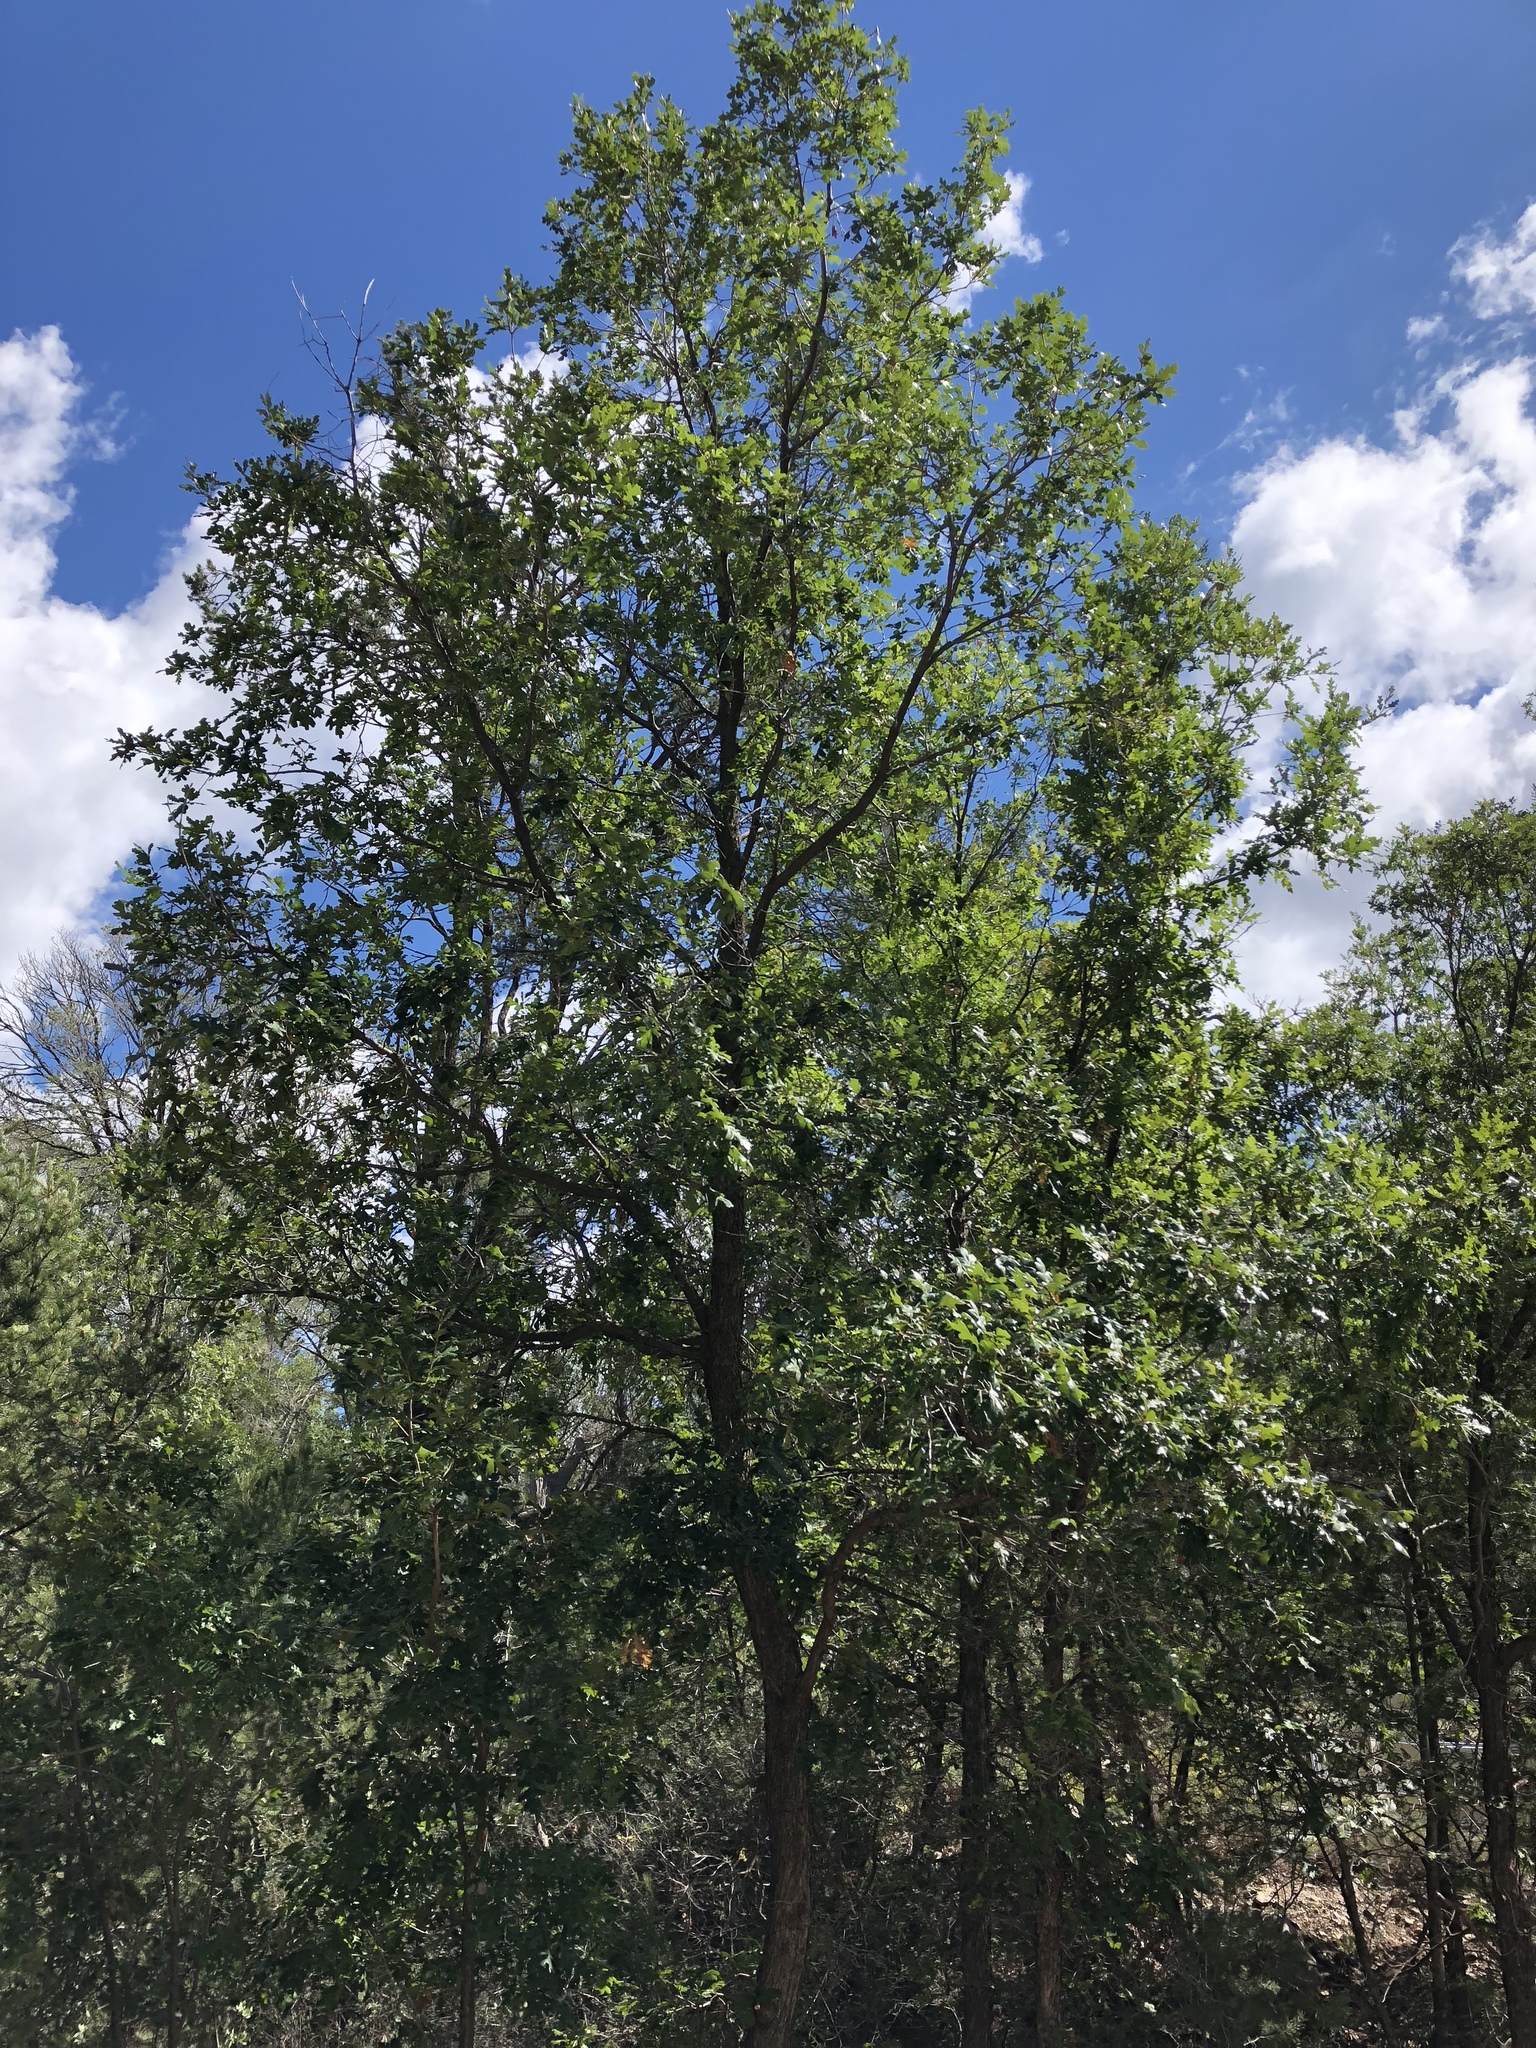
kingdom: Plantae
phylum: Tracheophyta
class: Magnoliopsida
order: Fagales
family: Fagaceae
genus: Quercus
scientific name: Quercus gambelii
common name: Gambel oak
